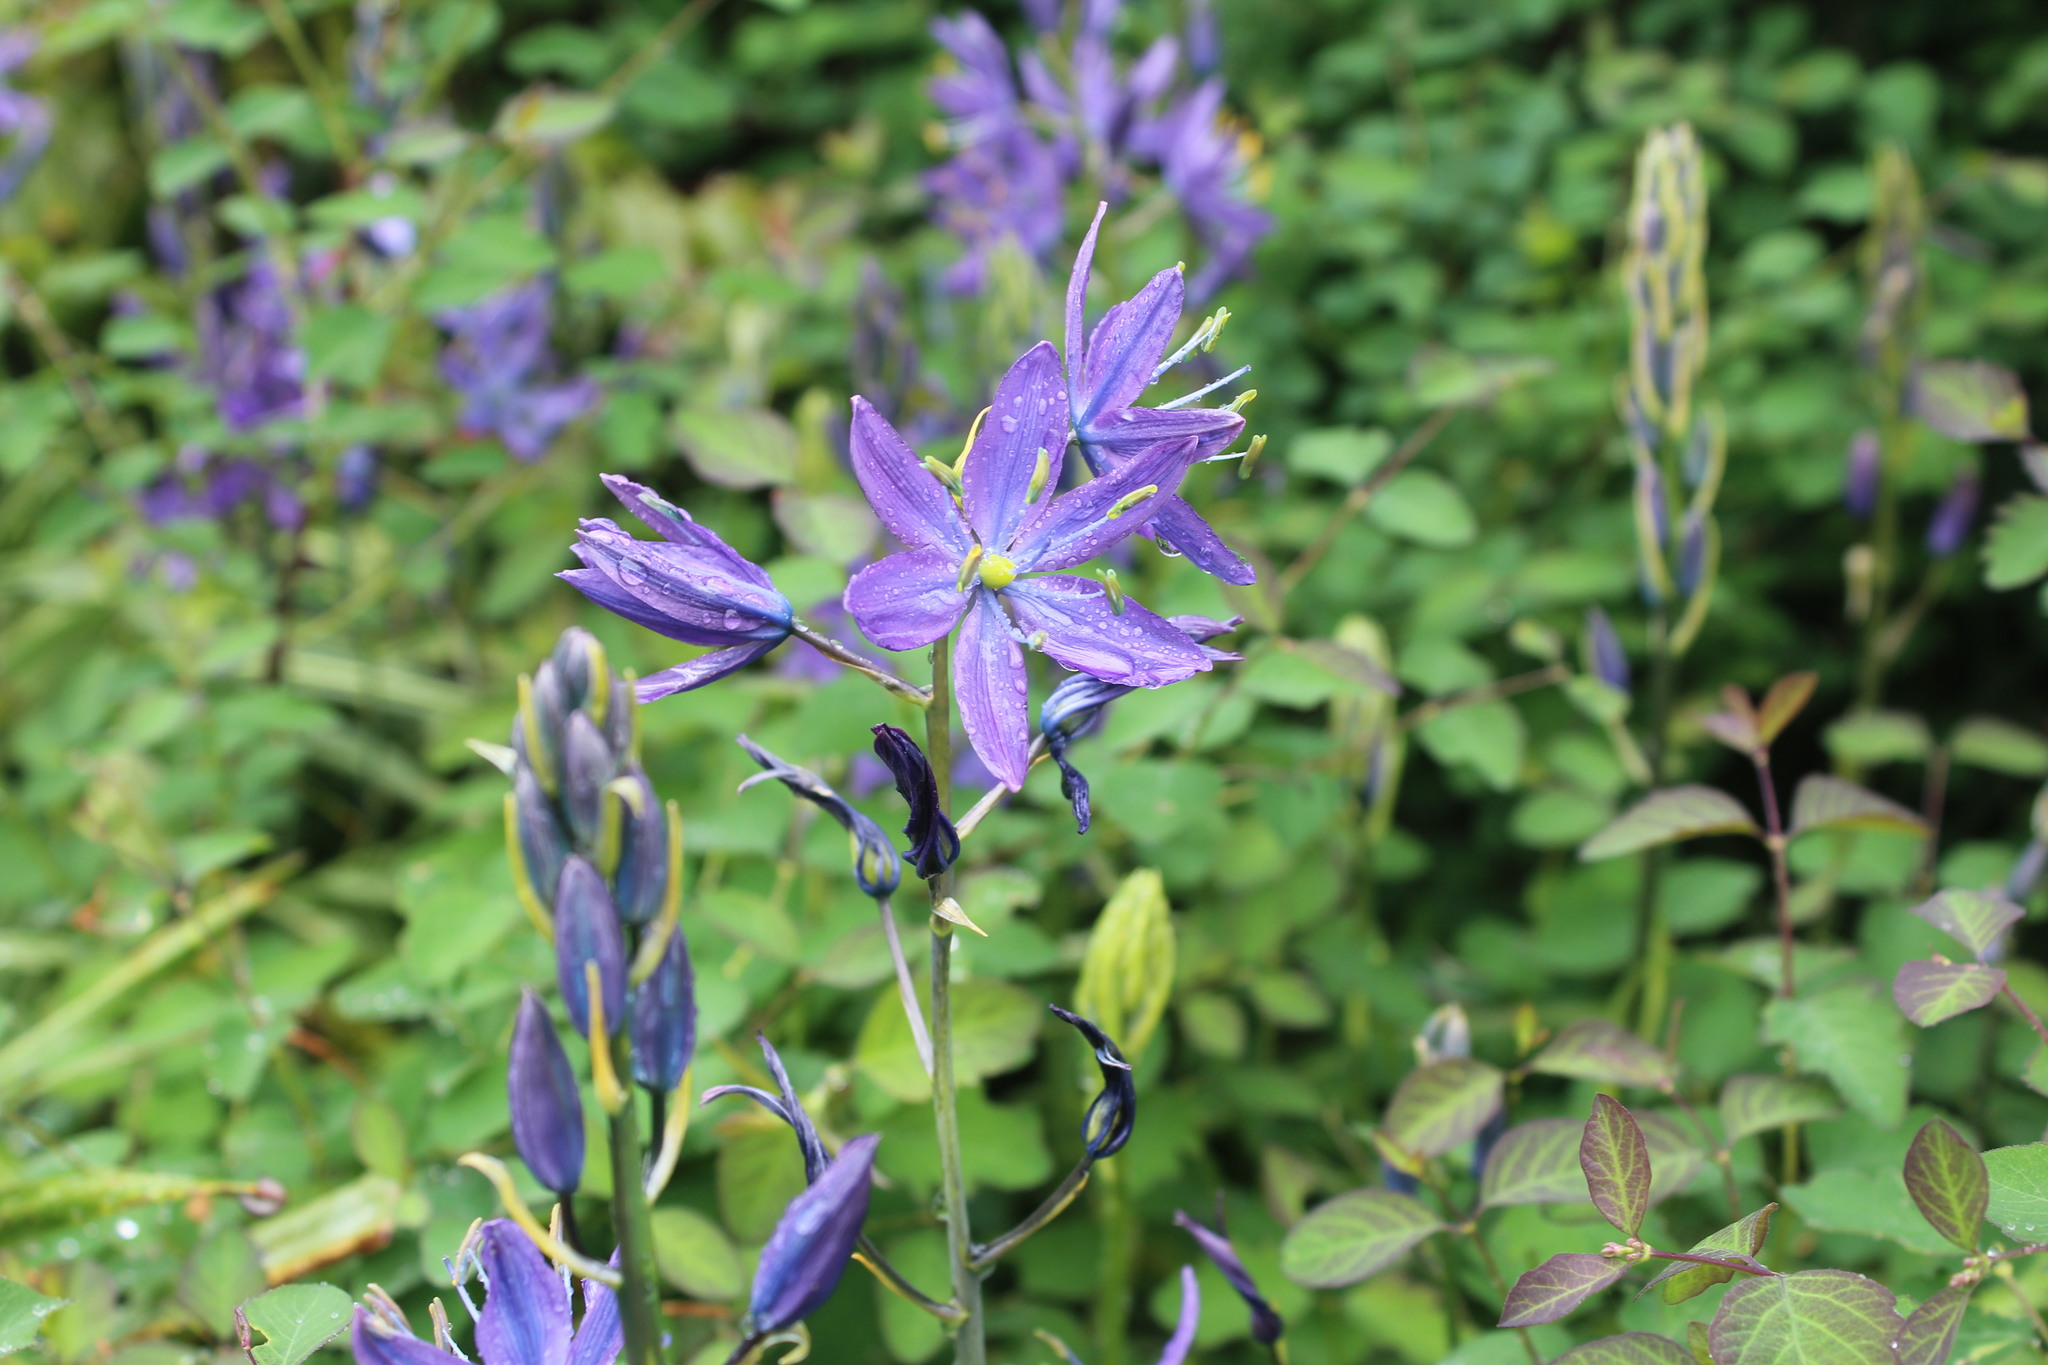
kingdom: Plantae
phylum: Tracheophyta
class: Liliopsida
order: Asparagales
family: Asparagaceae
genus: Camassia
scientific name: Camassia leichtlinii
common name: Leichtlin's camas
